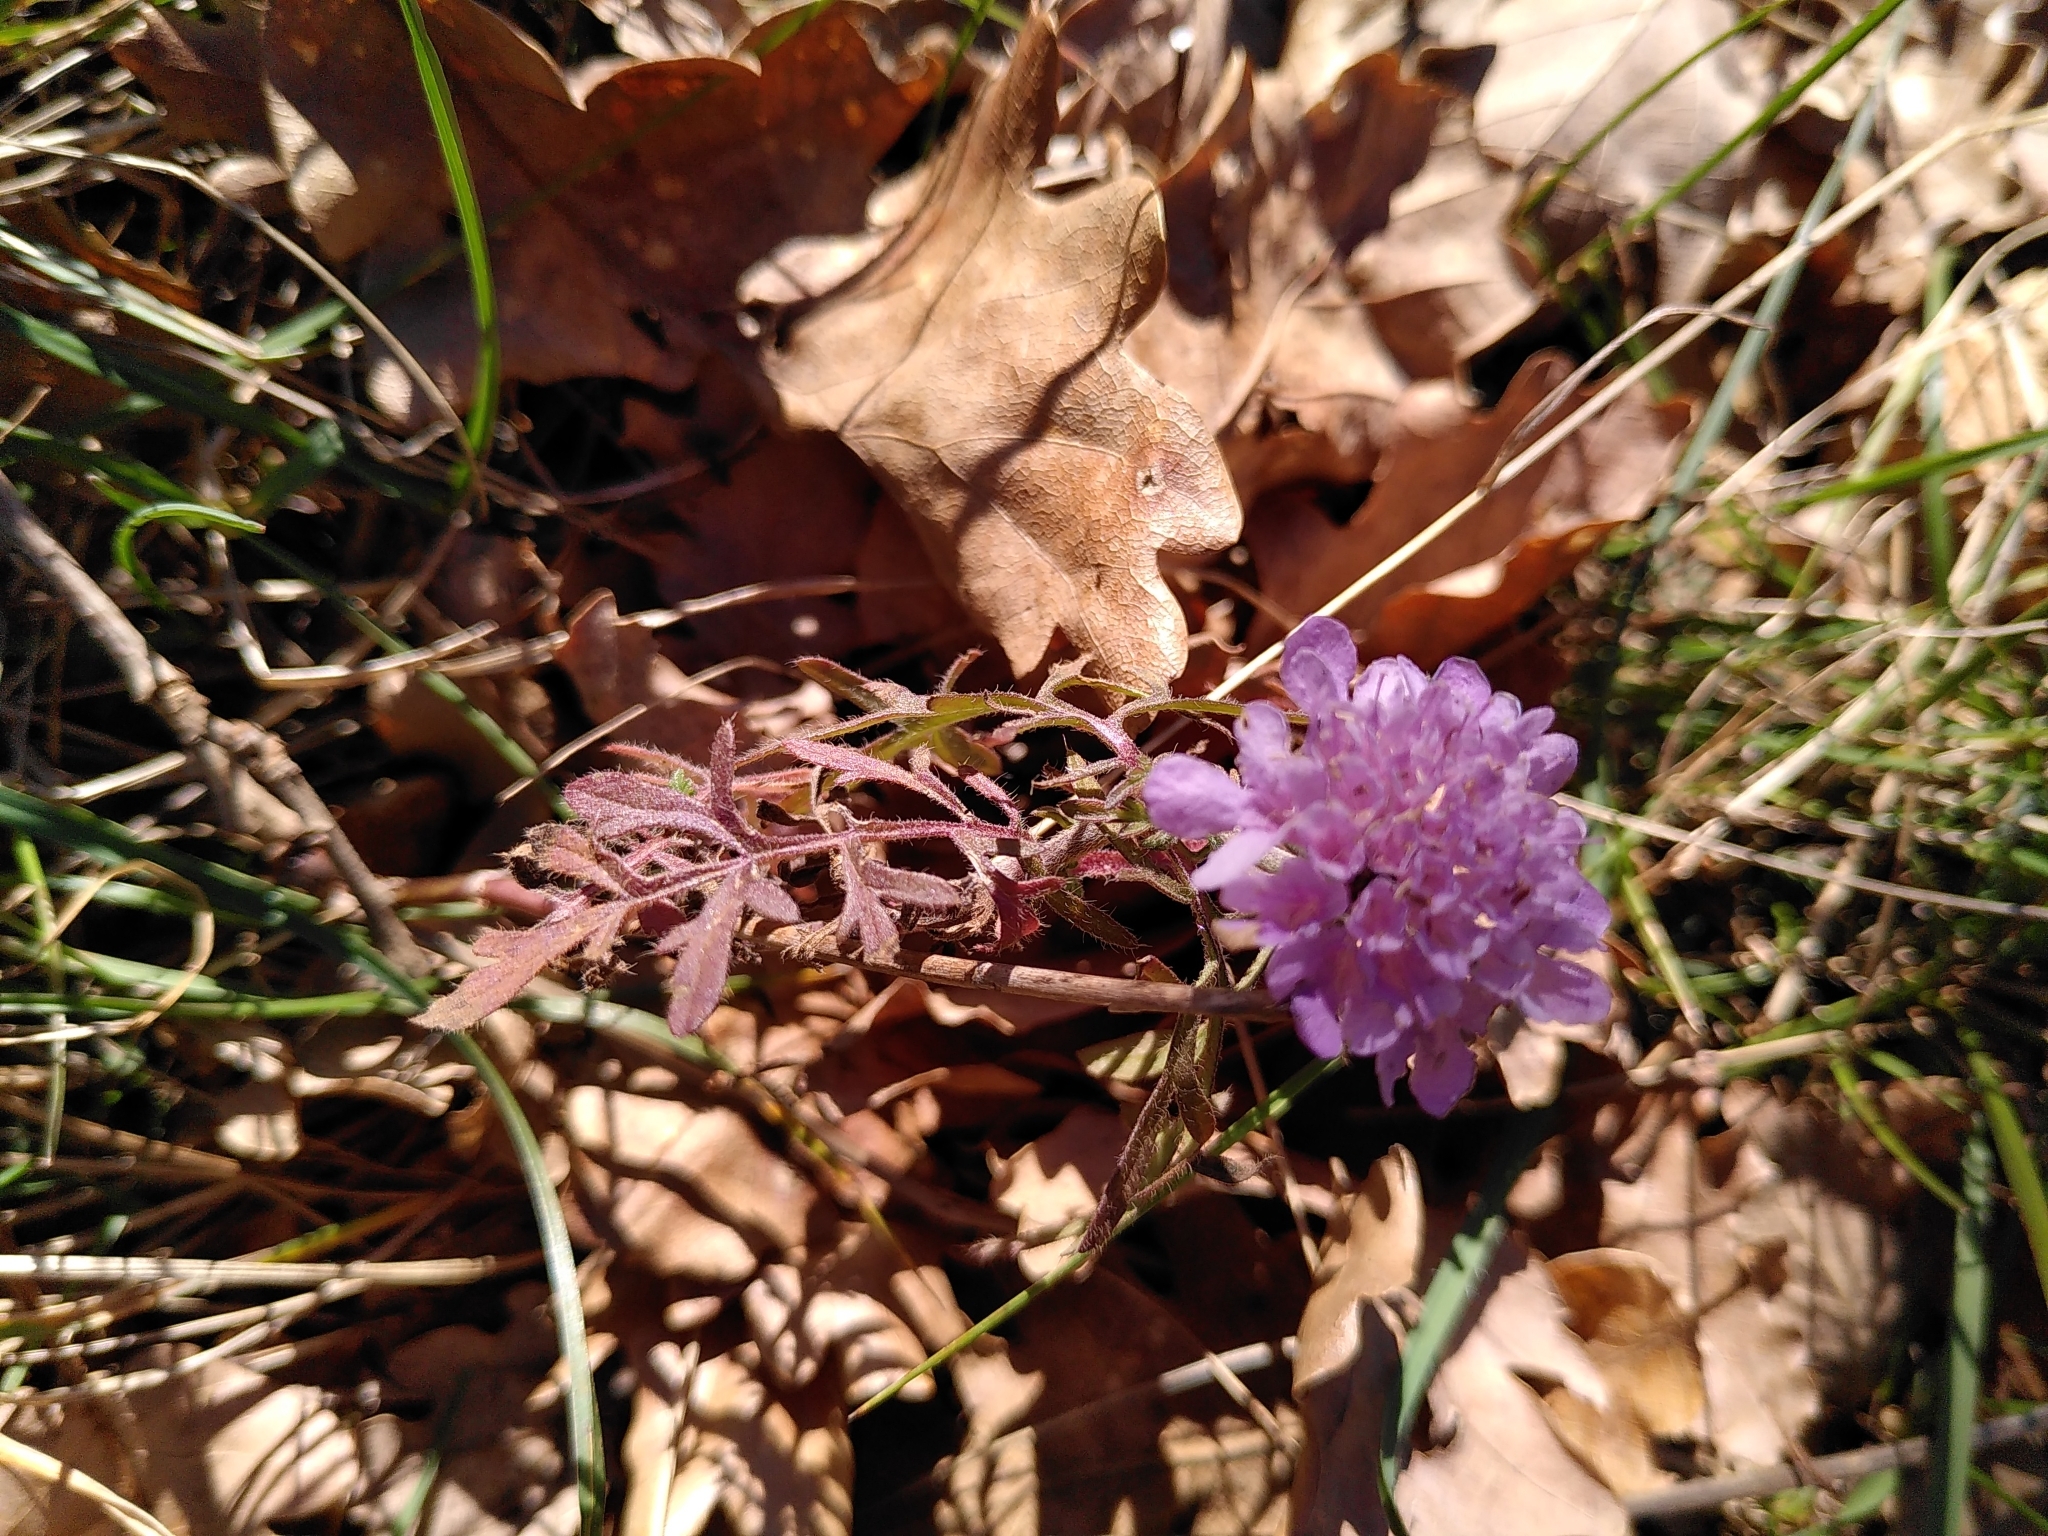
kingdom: Plantae
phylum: Tracheophyta
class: Magnoliopsida
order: Dipsacales
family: Caprifoliaceae
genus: Sixalix
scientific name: Sixalix atropurpurea
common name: Sweet scabious
